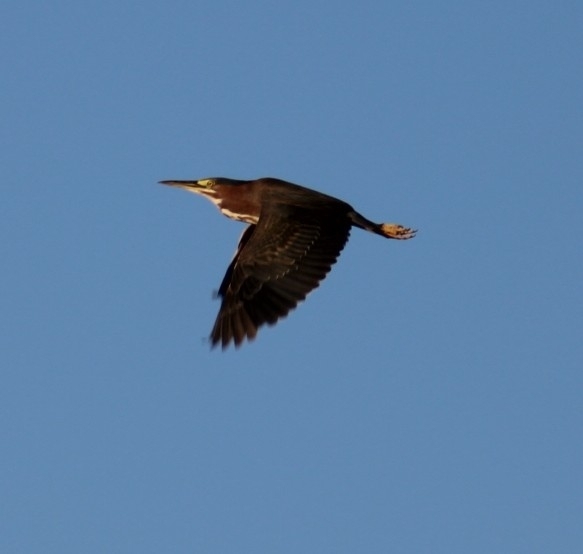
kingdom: Animalia
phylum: Chordata
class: Aves
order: Pelecaniformes
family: Ardeidae
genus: Butorides
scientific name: Butorides virescens
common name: Green heron
